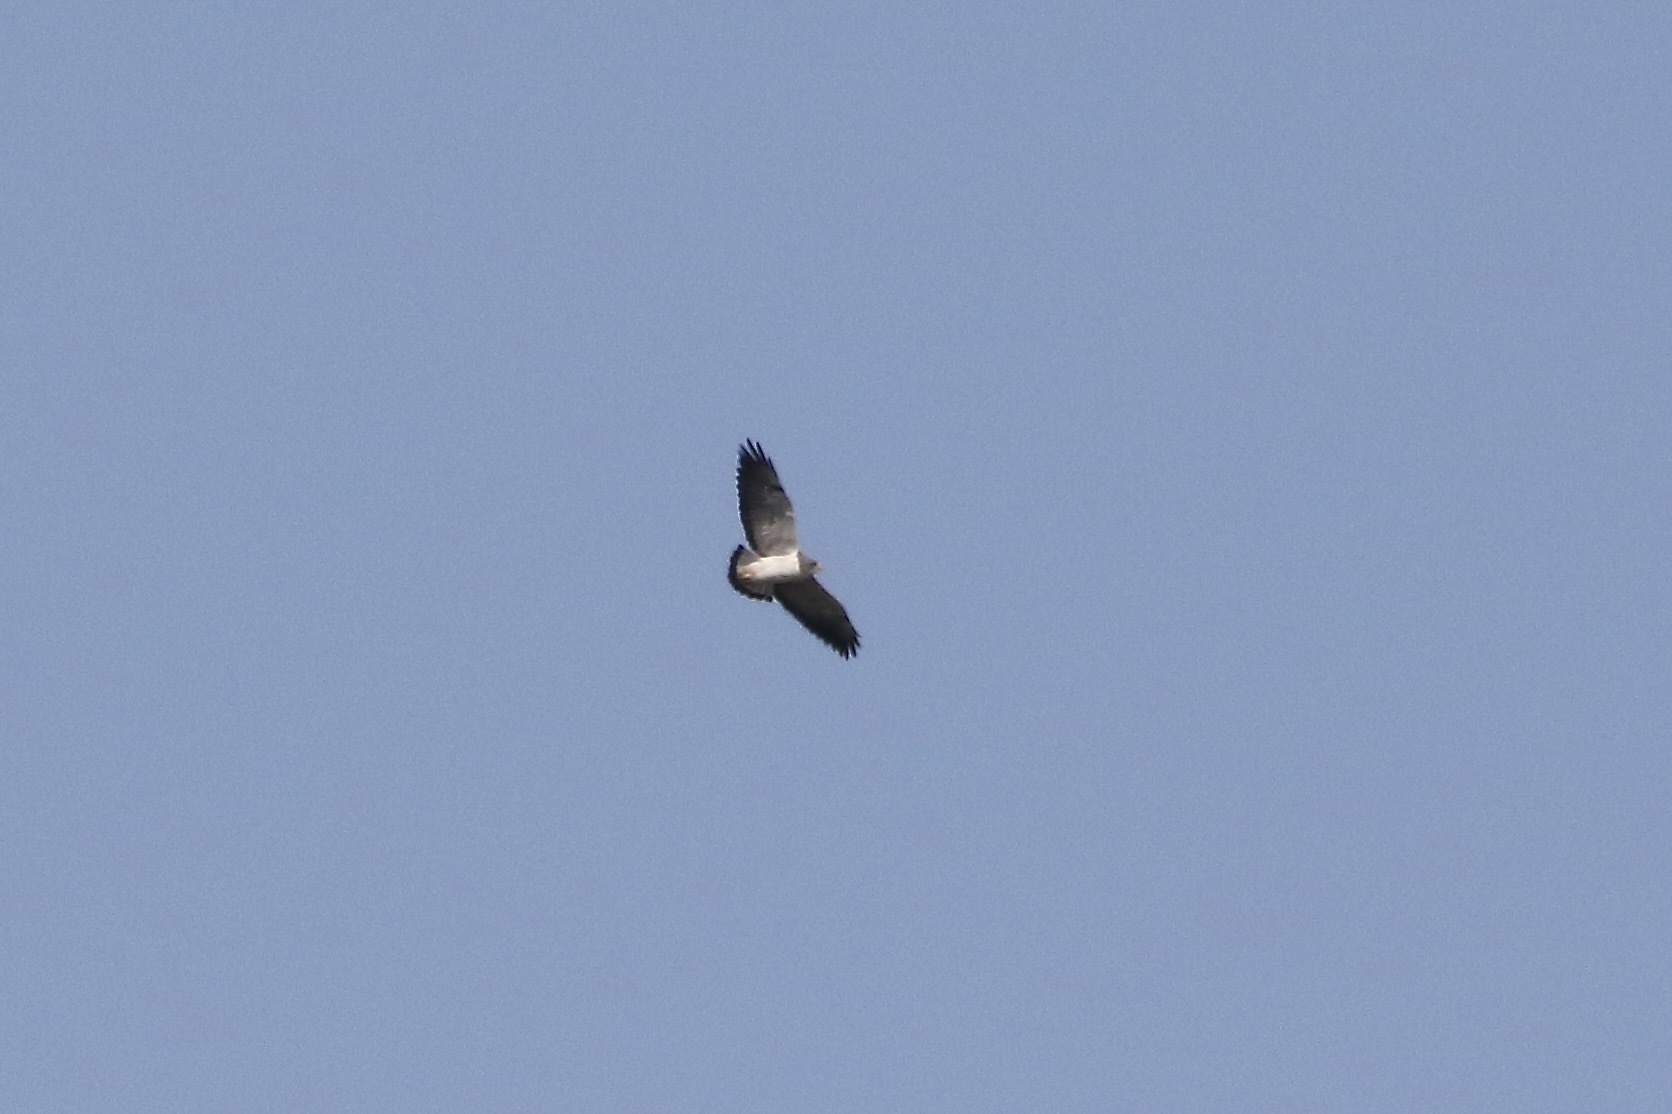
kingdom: Animalia
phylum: Chordata
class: Aves
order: Accipitriformes
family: Accipitridae
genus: Buteo
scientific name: Buteo albicaudatus
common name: White-tailed hawk
